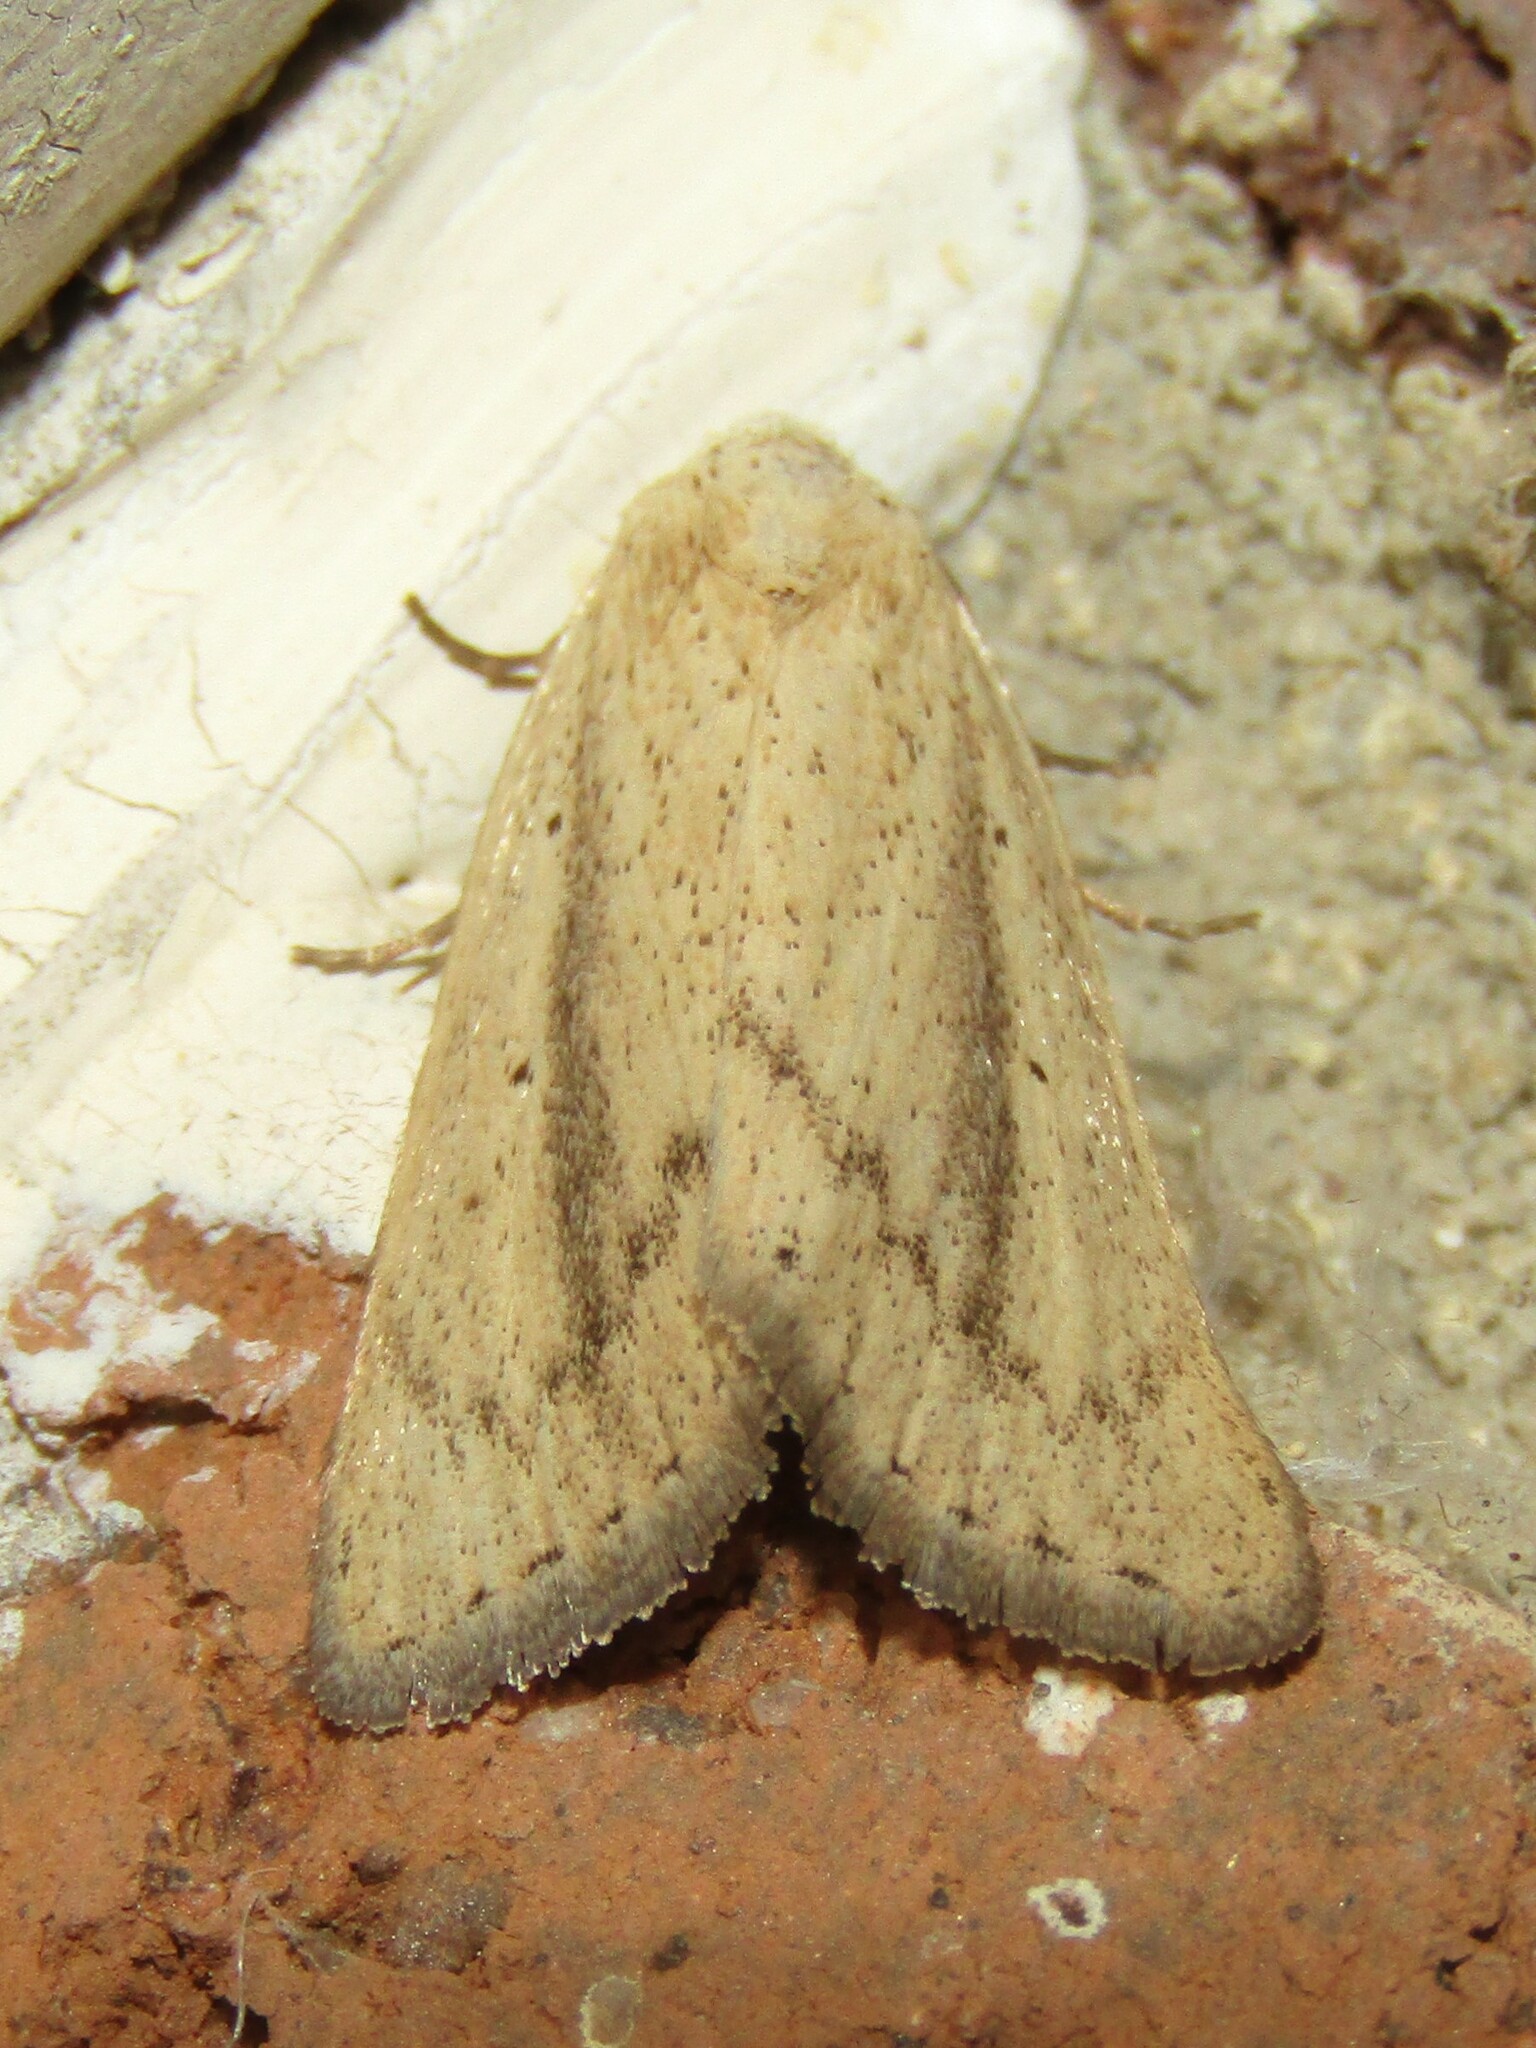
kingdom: Animalia
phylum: Arthropoda
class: Insecta
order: Lepidoptera
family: Erebidae
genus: Gabara
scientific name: Gabara
